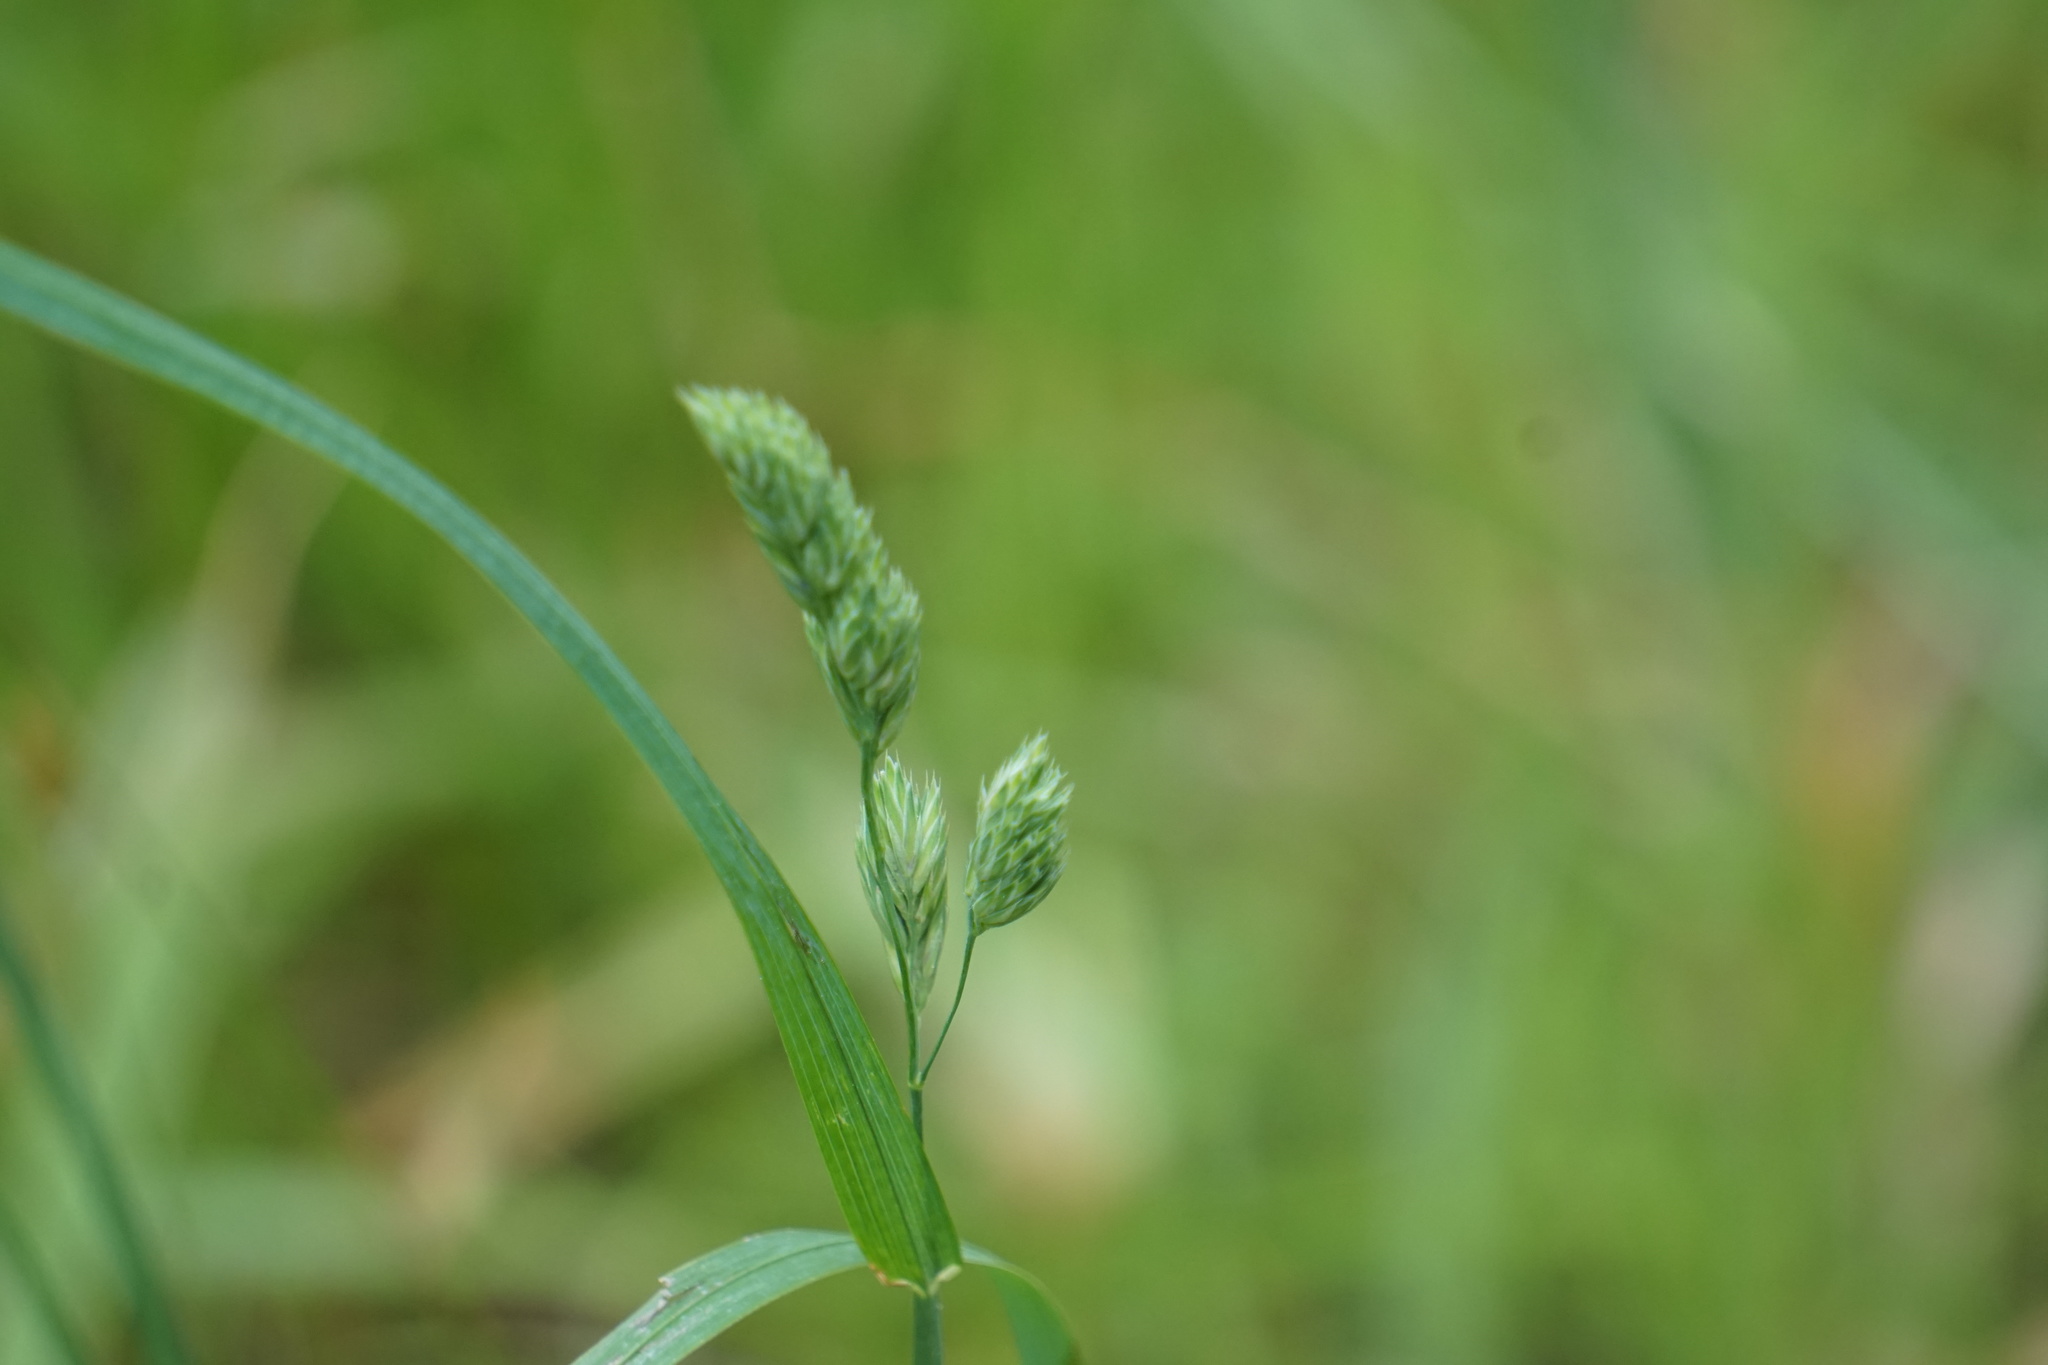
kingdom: Plantae
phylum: Tracheophyta
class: Liliopsida
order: Poales
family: Poaceae
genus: Dactylis
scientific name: Dactylis glomerata
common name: Orchardgrass
